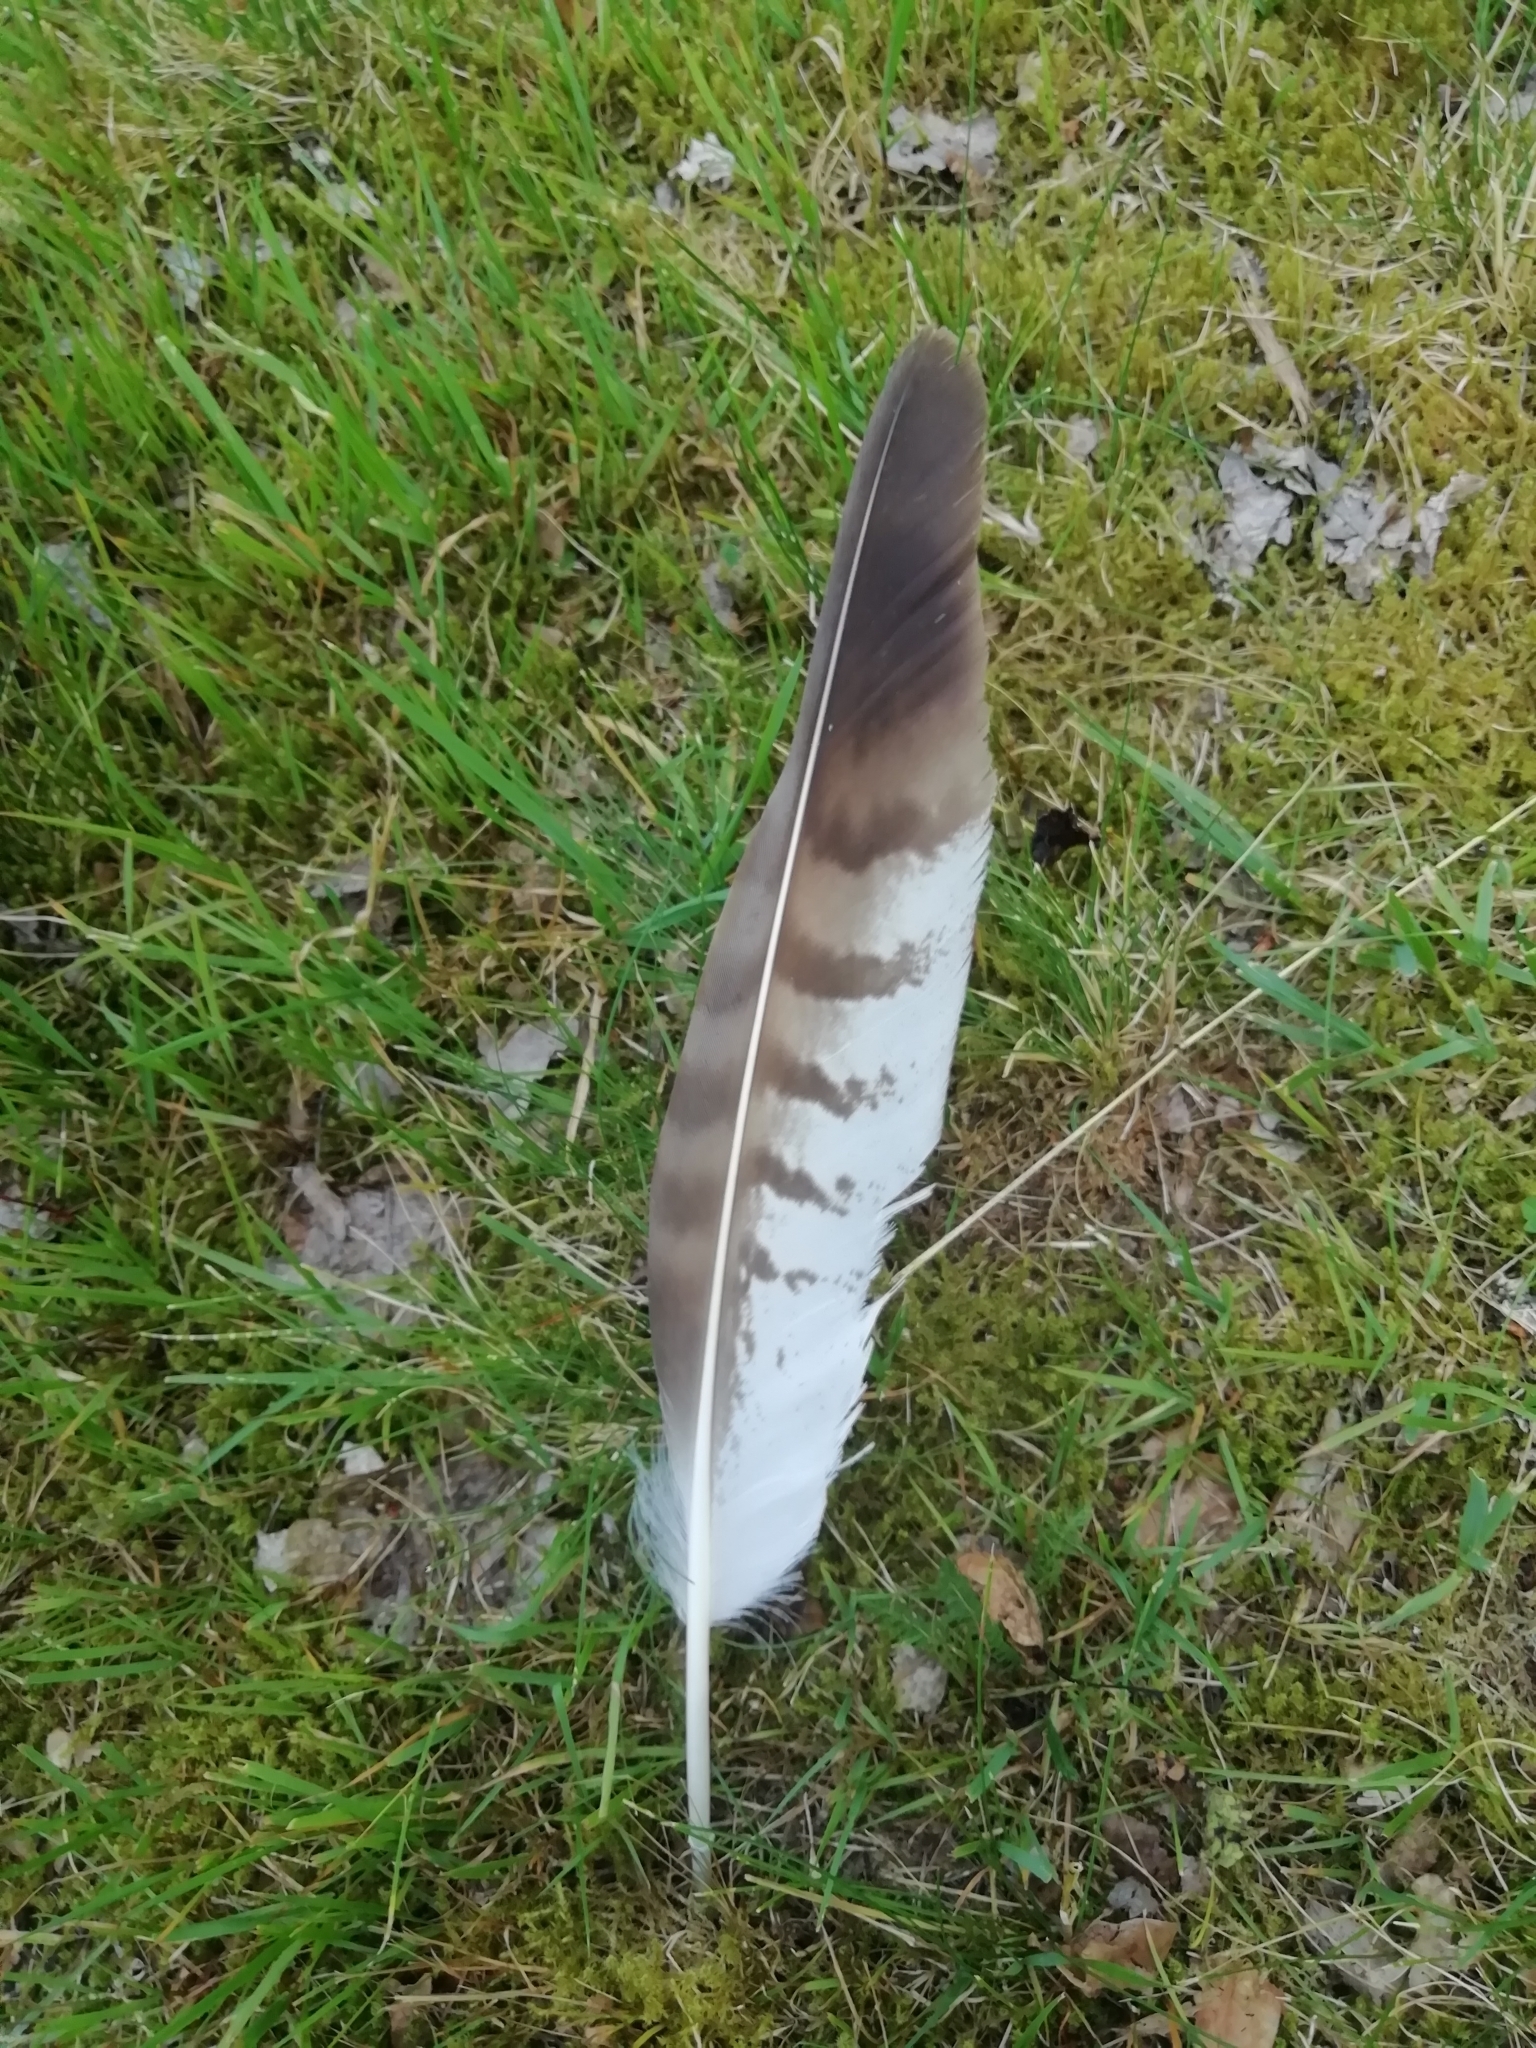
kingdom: Animalia
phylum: Chordata
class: Aves
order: Accipitriformes
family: Accipitridae
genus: Buteo
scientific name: Buteo buteo
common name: Common buzzard
